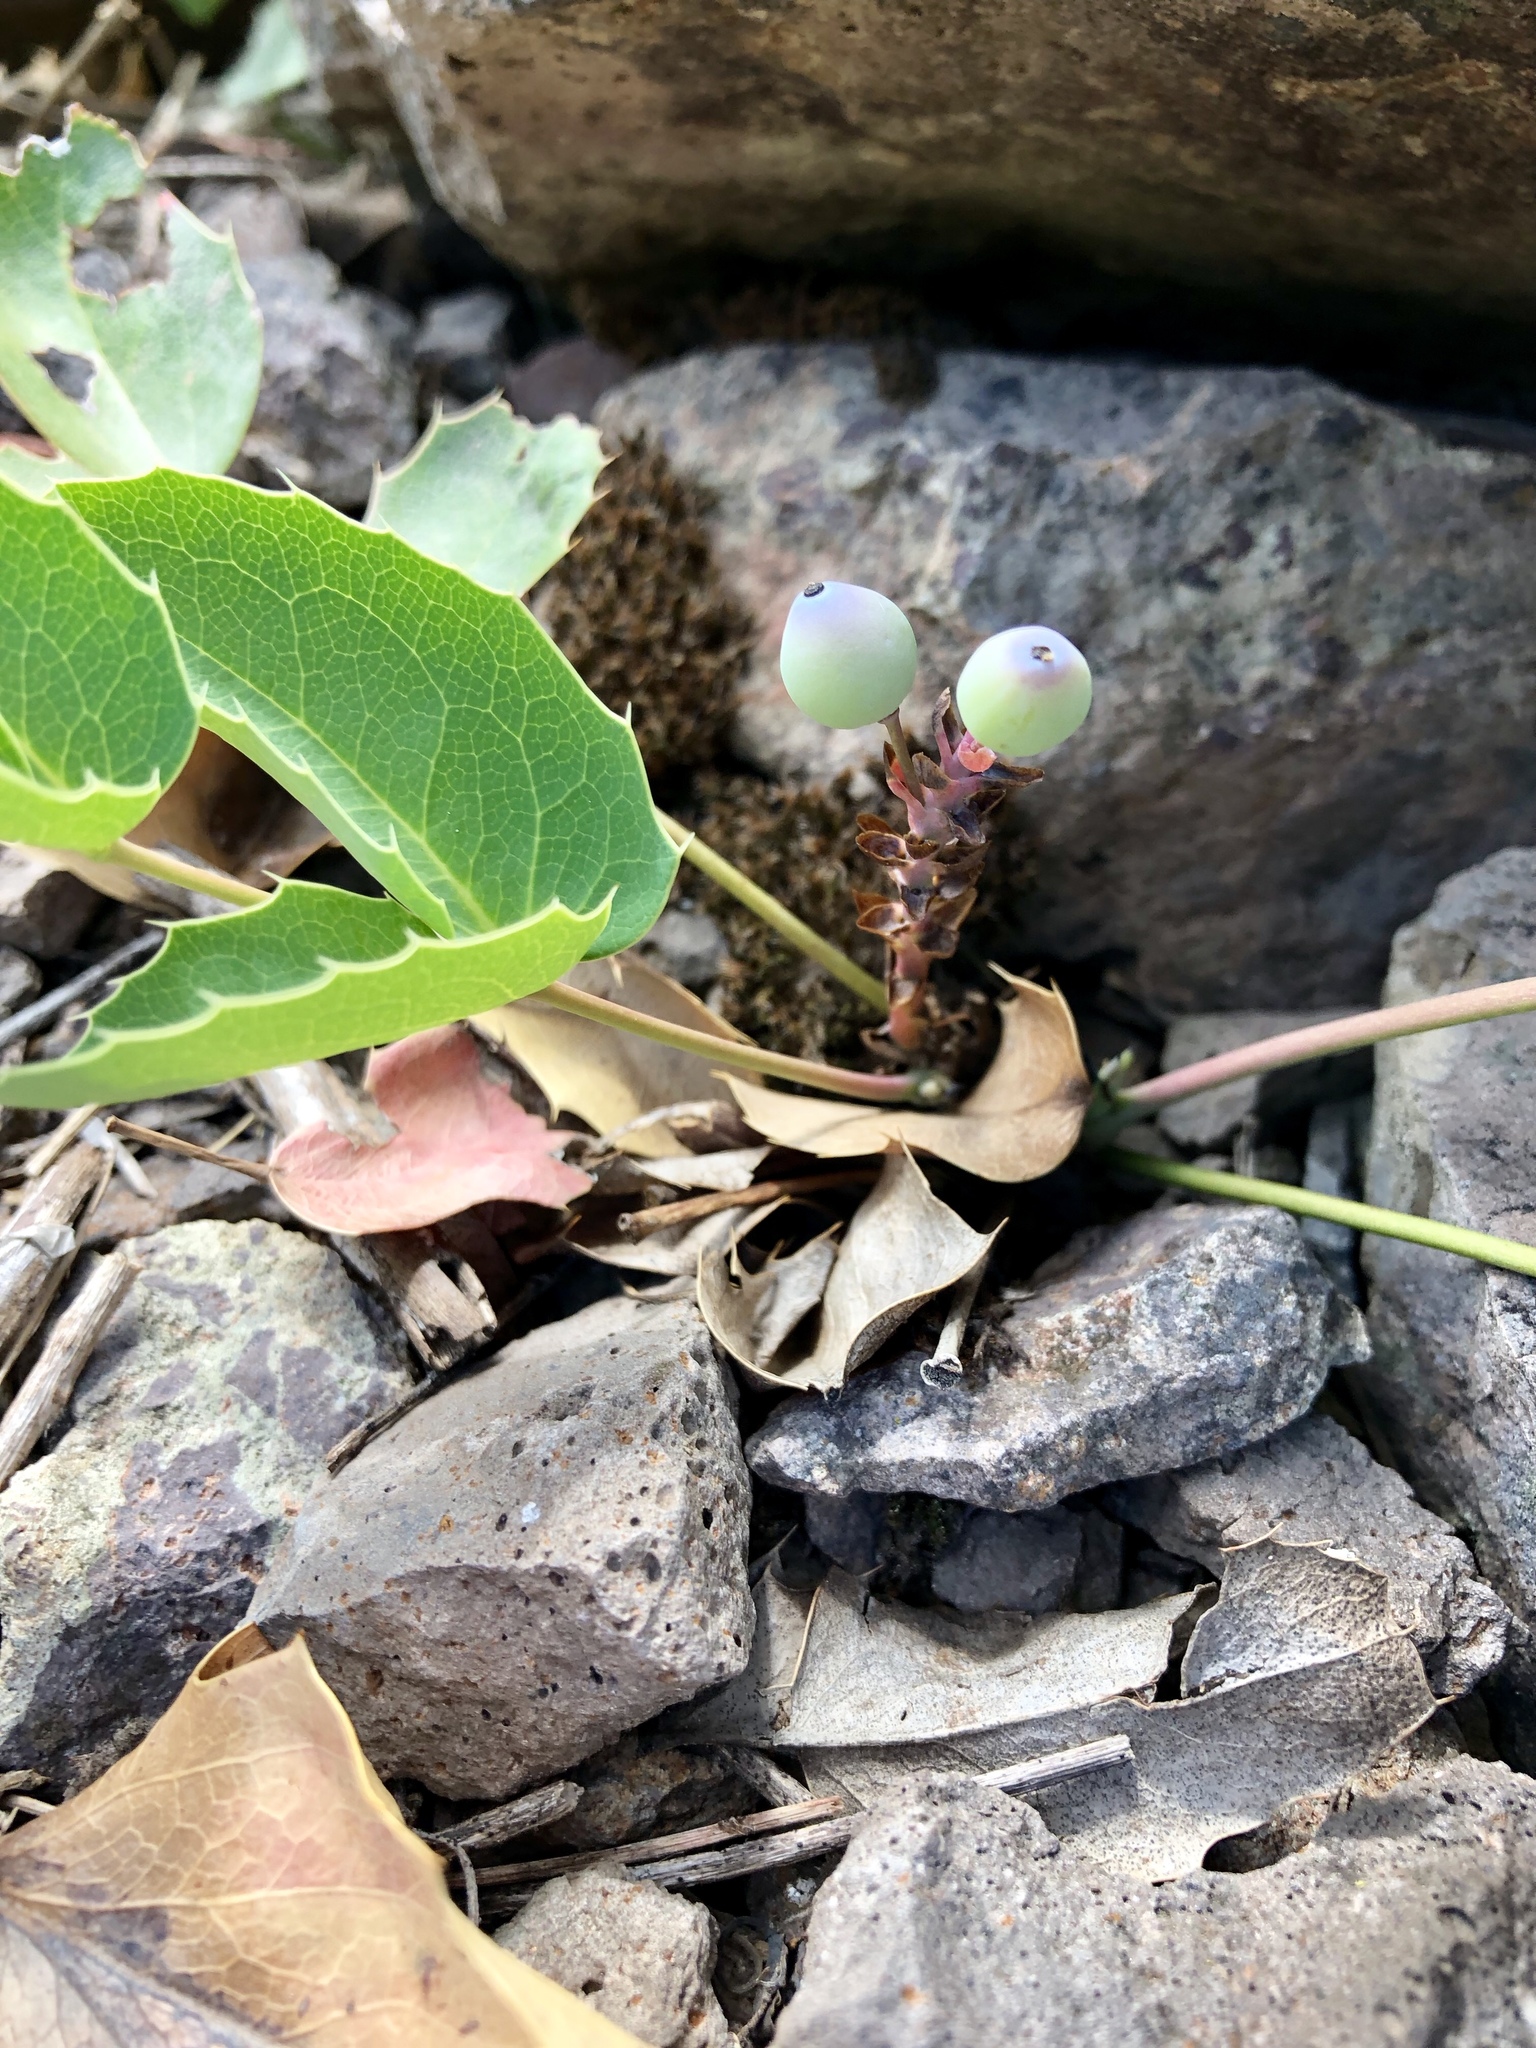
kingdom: Plantae
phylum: Tracheophyta
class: Magnoliopsida
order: Ranunculales
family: Berberidaceae
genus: Mahonia
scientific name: Mahonia repens
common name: Creeping oregon-grape
